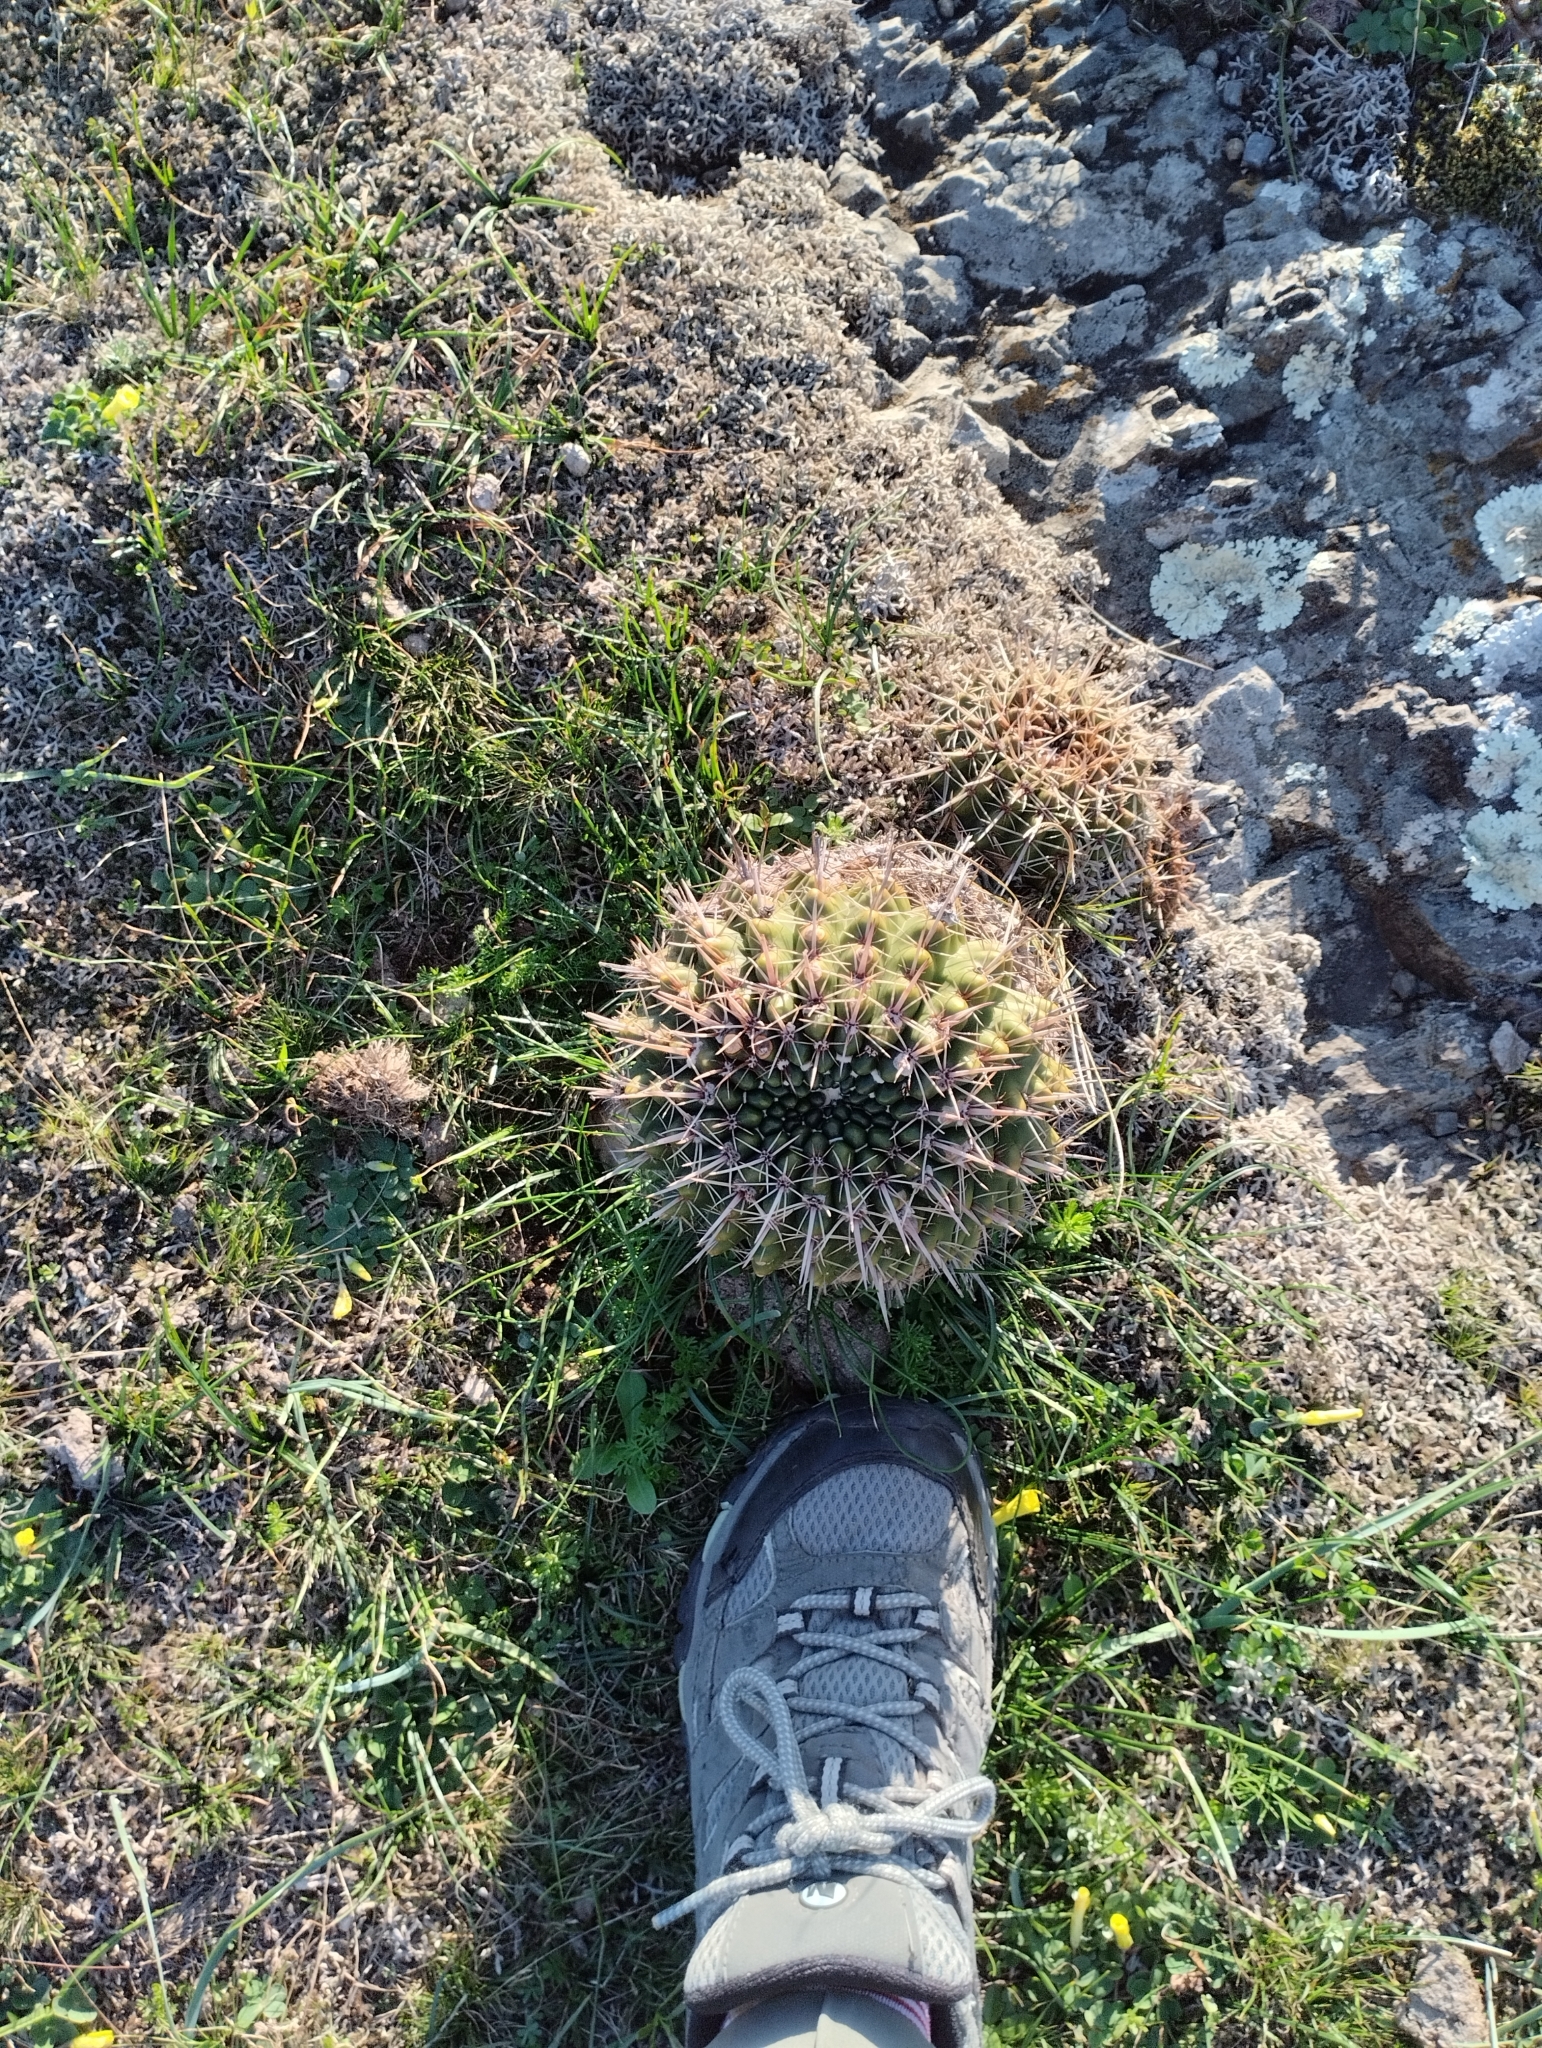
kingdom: Plantae
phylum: Tracheophyta
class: Magnoliopsida
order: Caryophyllales
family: Cactaceae
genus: Parodia
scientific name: Parodia mammulosa
